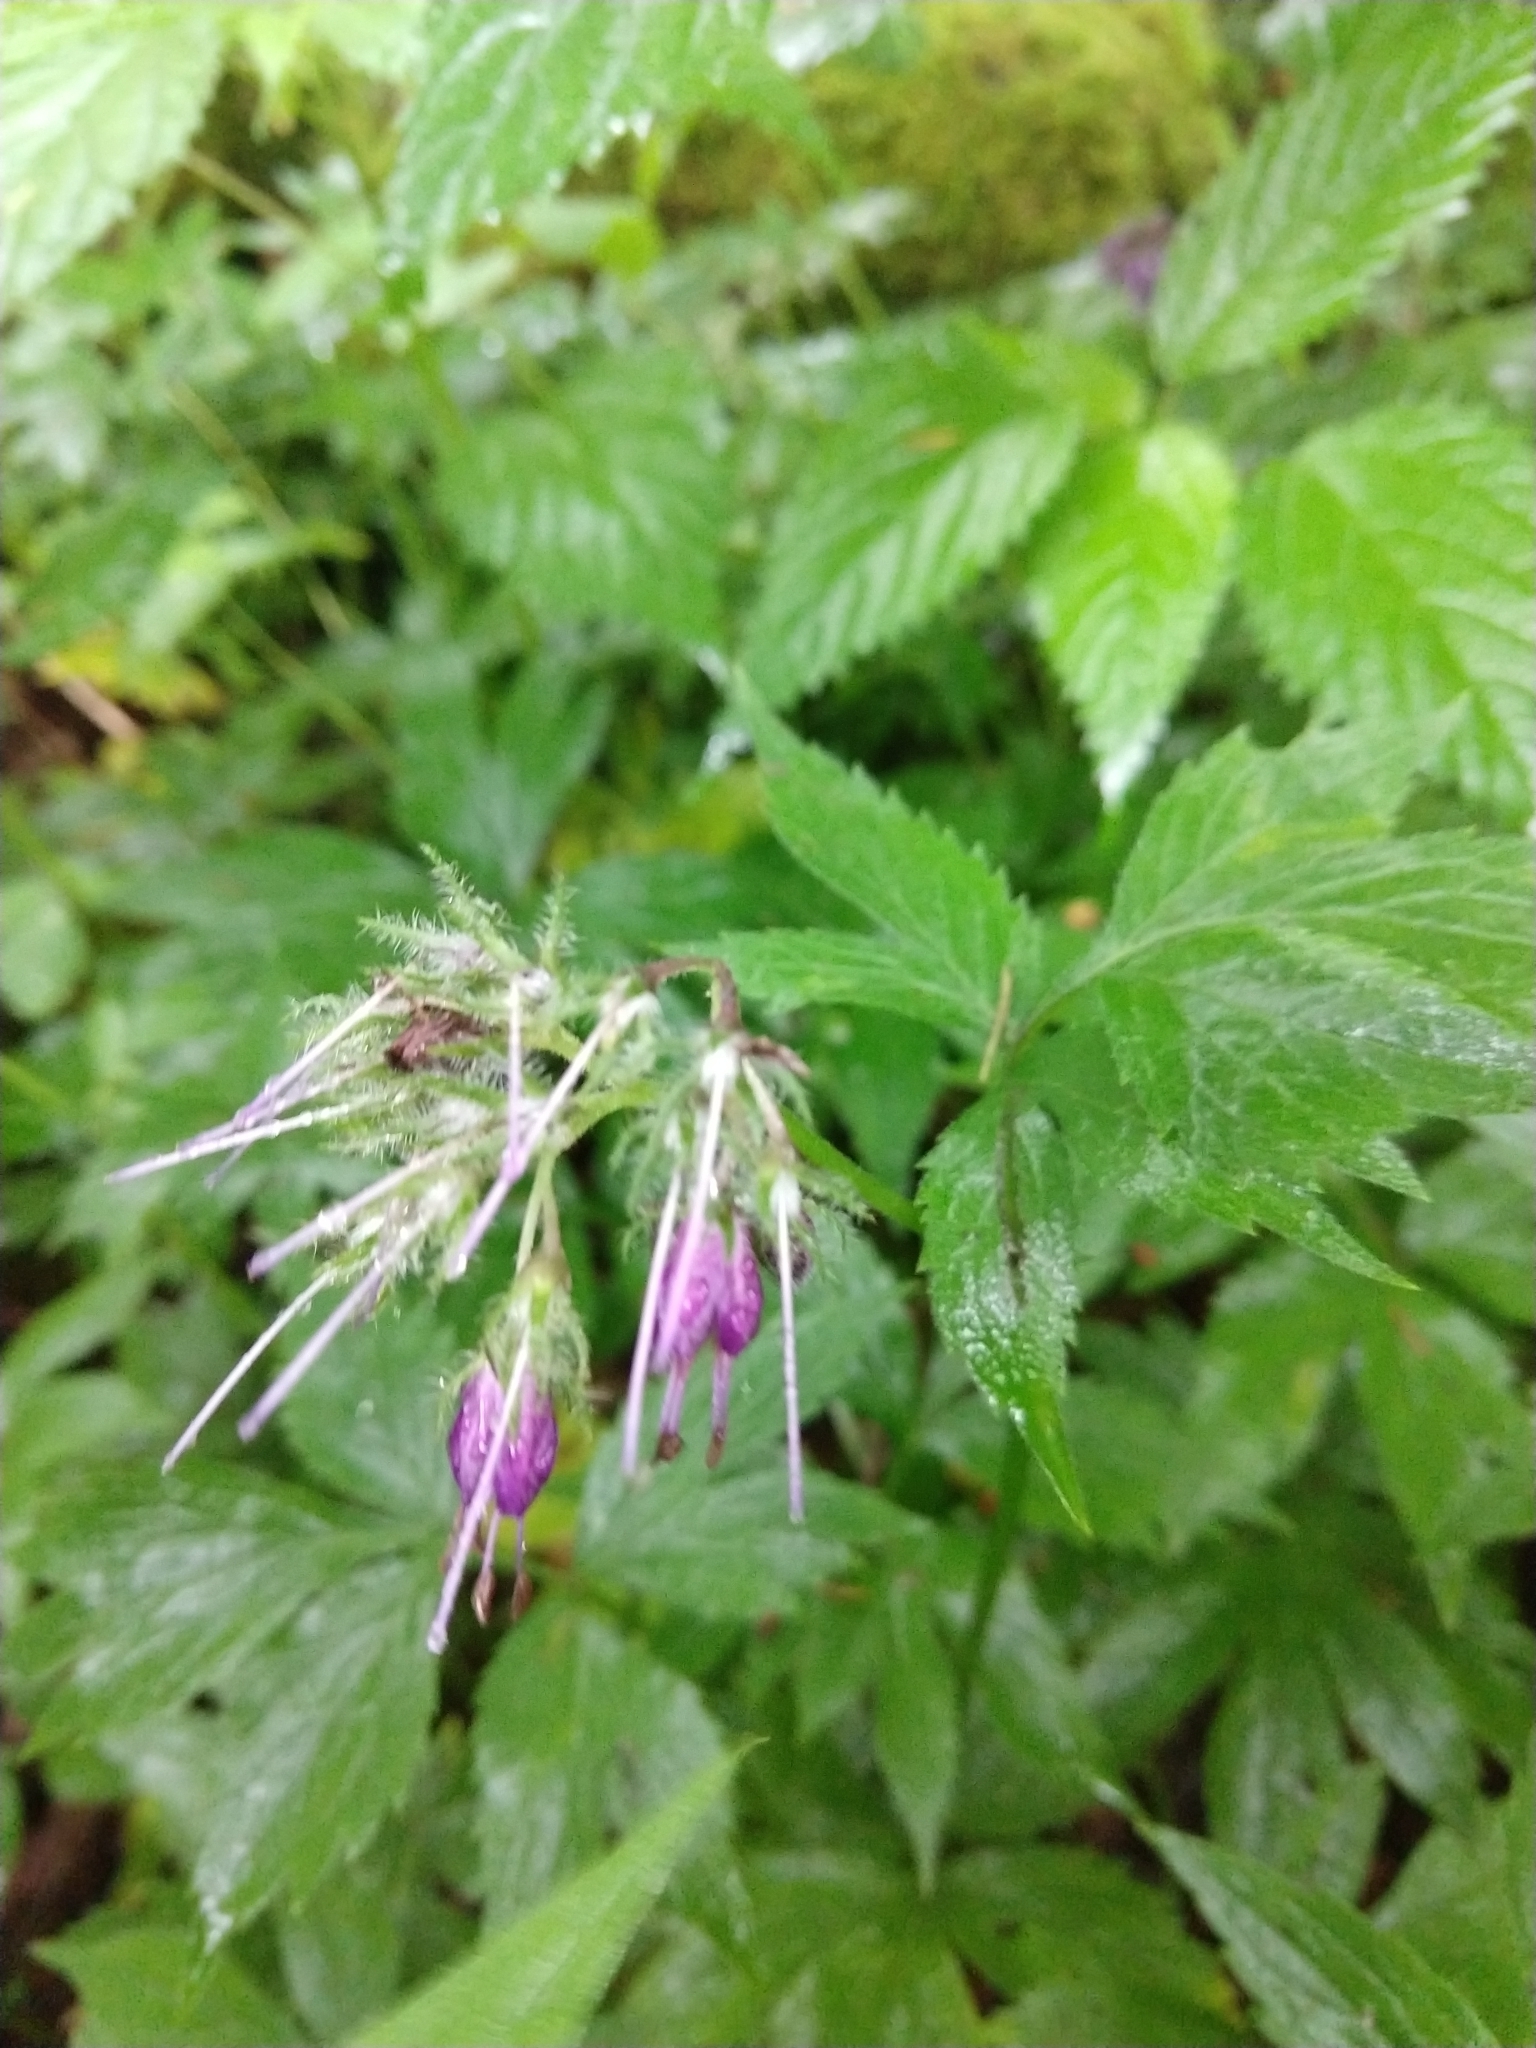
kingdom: Plantae
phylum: Tracheophyta
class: Magnoliopsida
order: Boraginales
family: Hydrophyllaceae
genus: Hydrophyllum
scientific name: Hydrophyllum virginianum
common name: Virginia waterleaf
